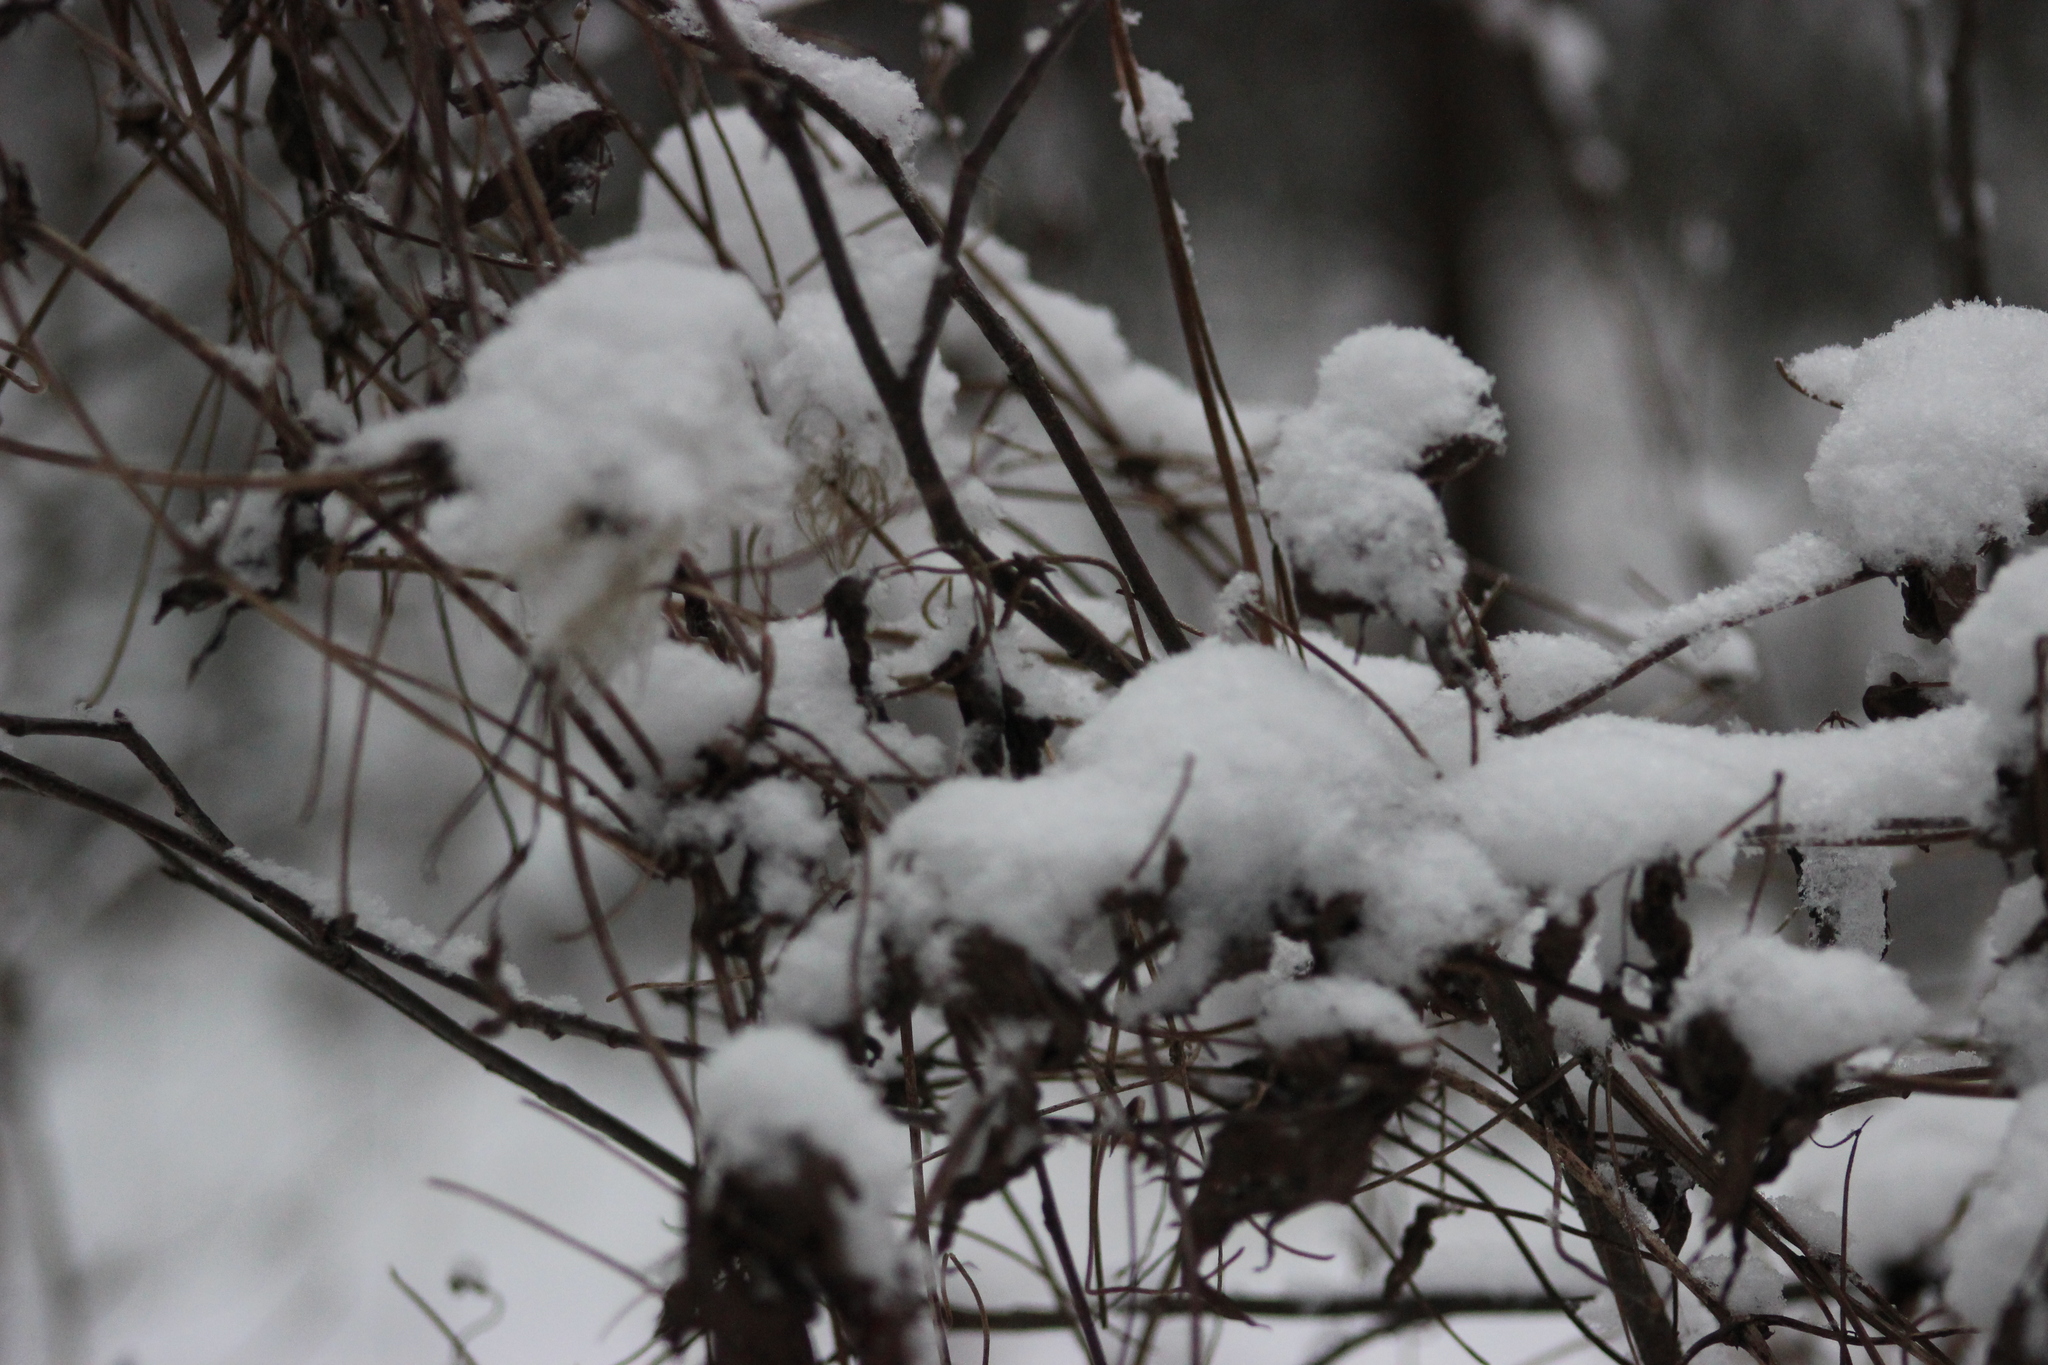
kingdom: Plantae
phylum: Tracheophyta
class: Magnoliopsida
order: Ranunculales
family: Ranunculaceae
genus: Clematis
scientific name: Clematis sibirica
